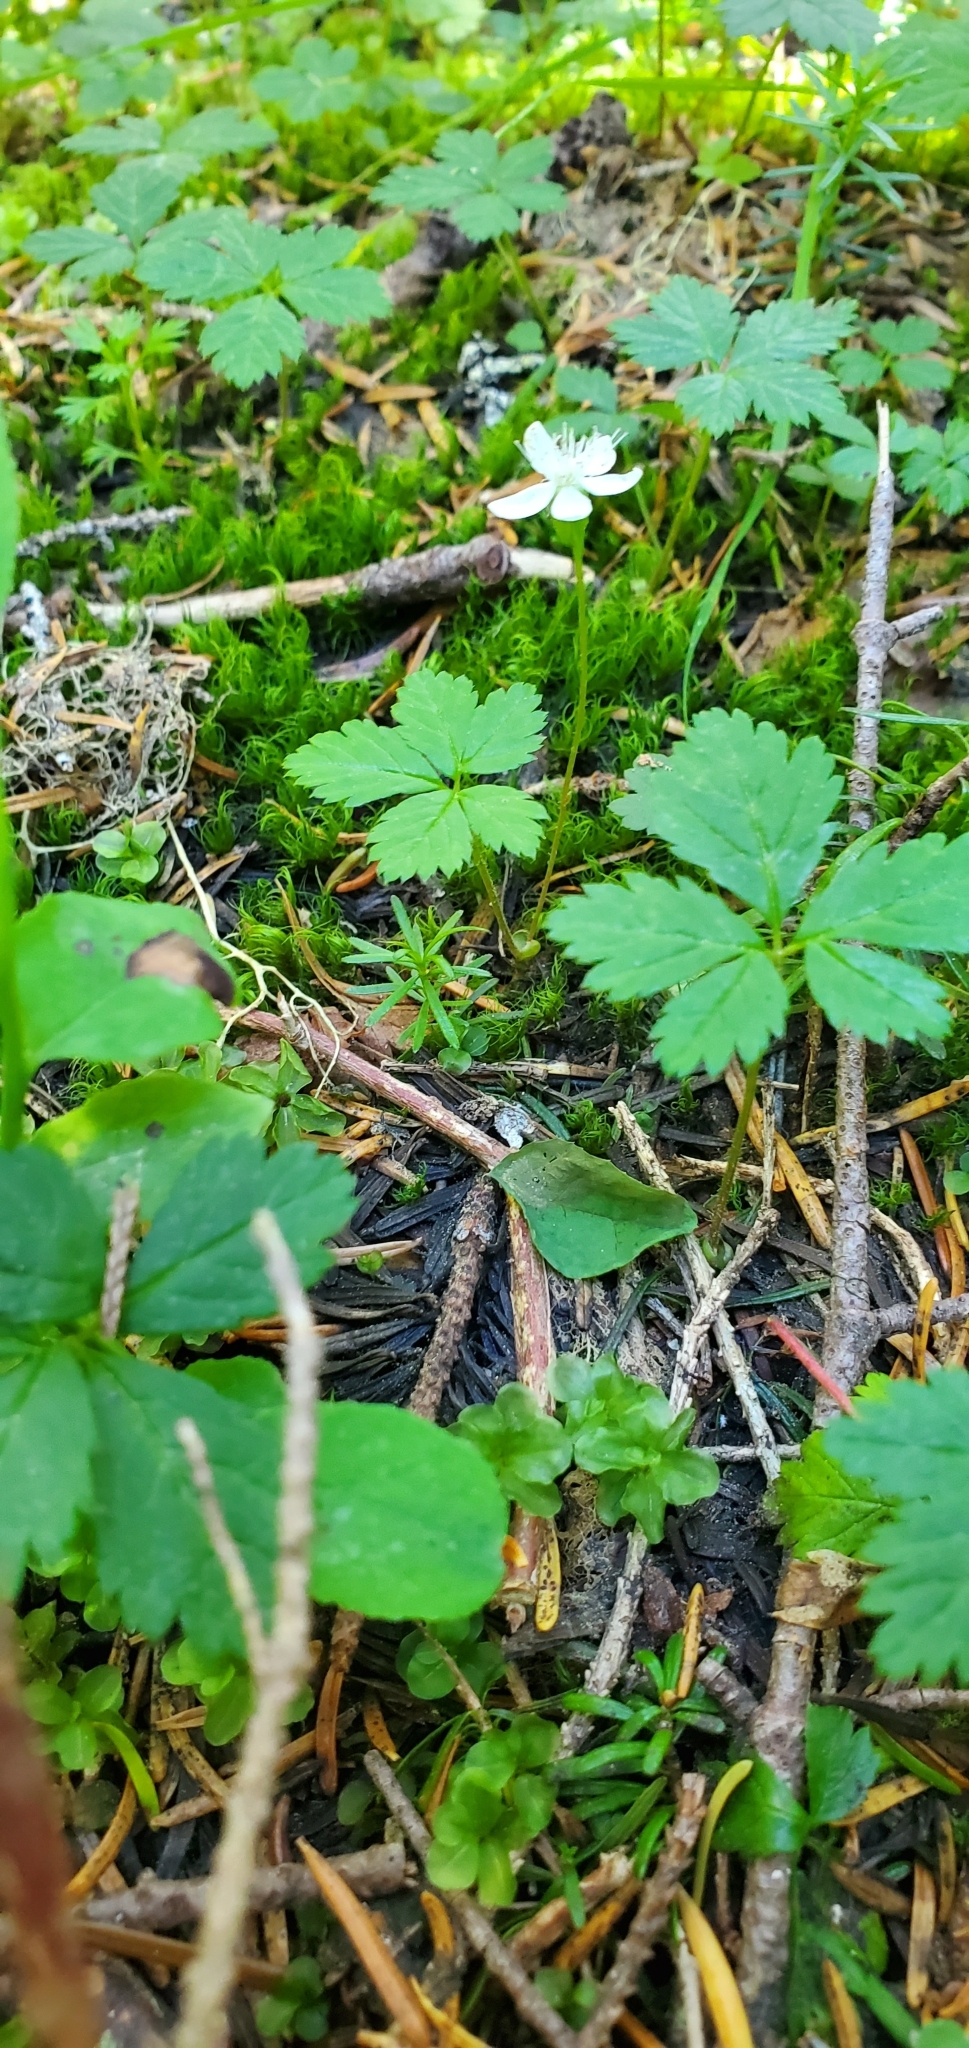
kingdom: Plantae
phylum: Tracheophyta
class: Magnoliopsida
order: Rosales
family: Rosaceae
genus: Rubus
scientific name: Rubus pedatus
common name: Creeping raspberry
